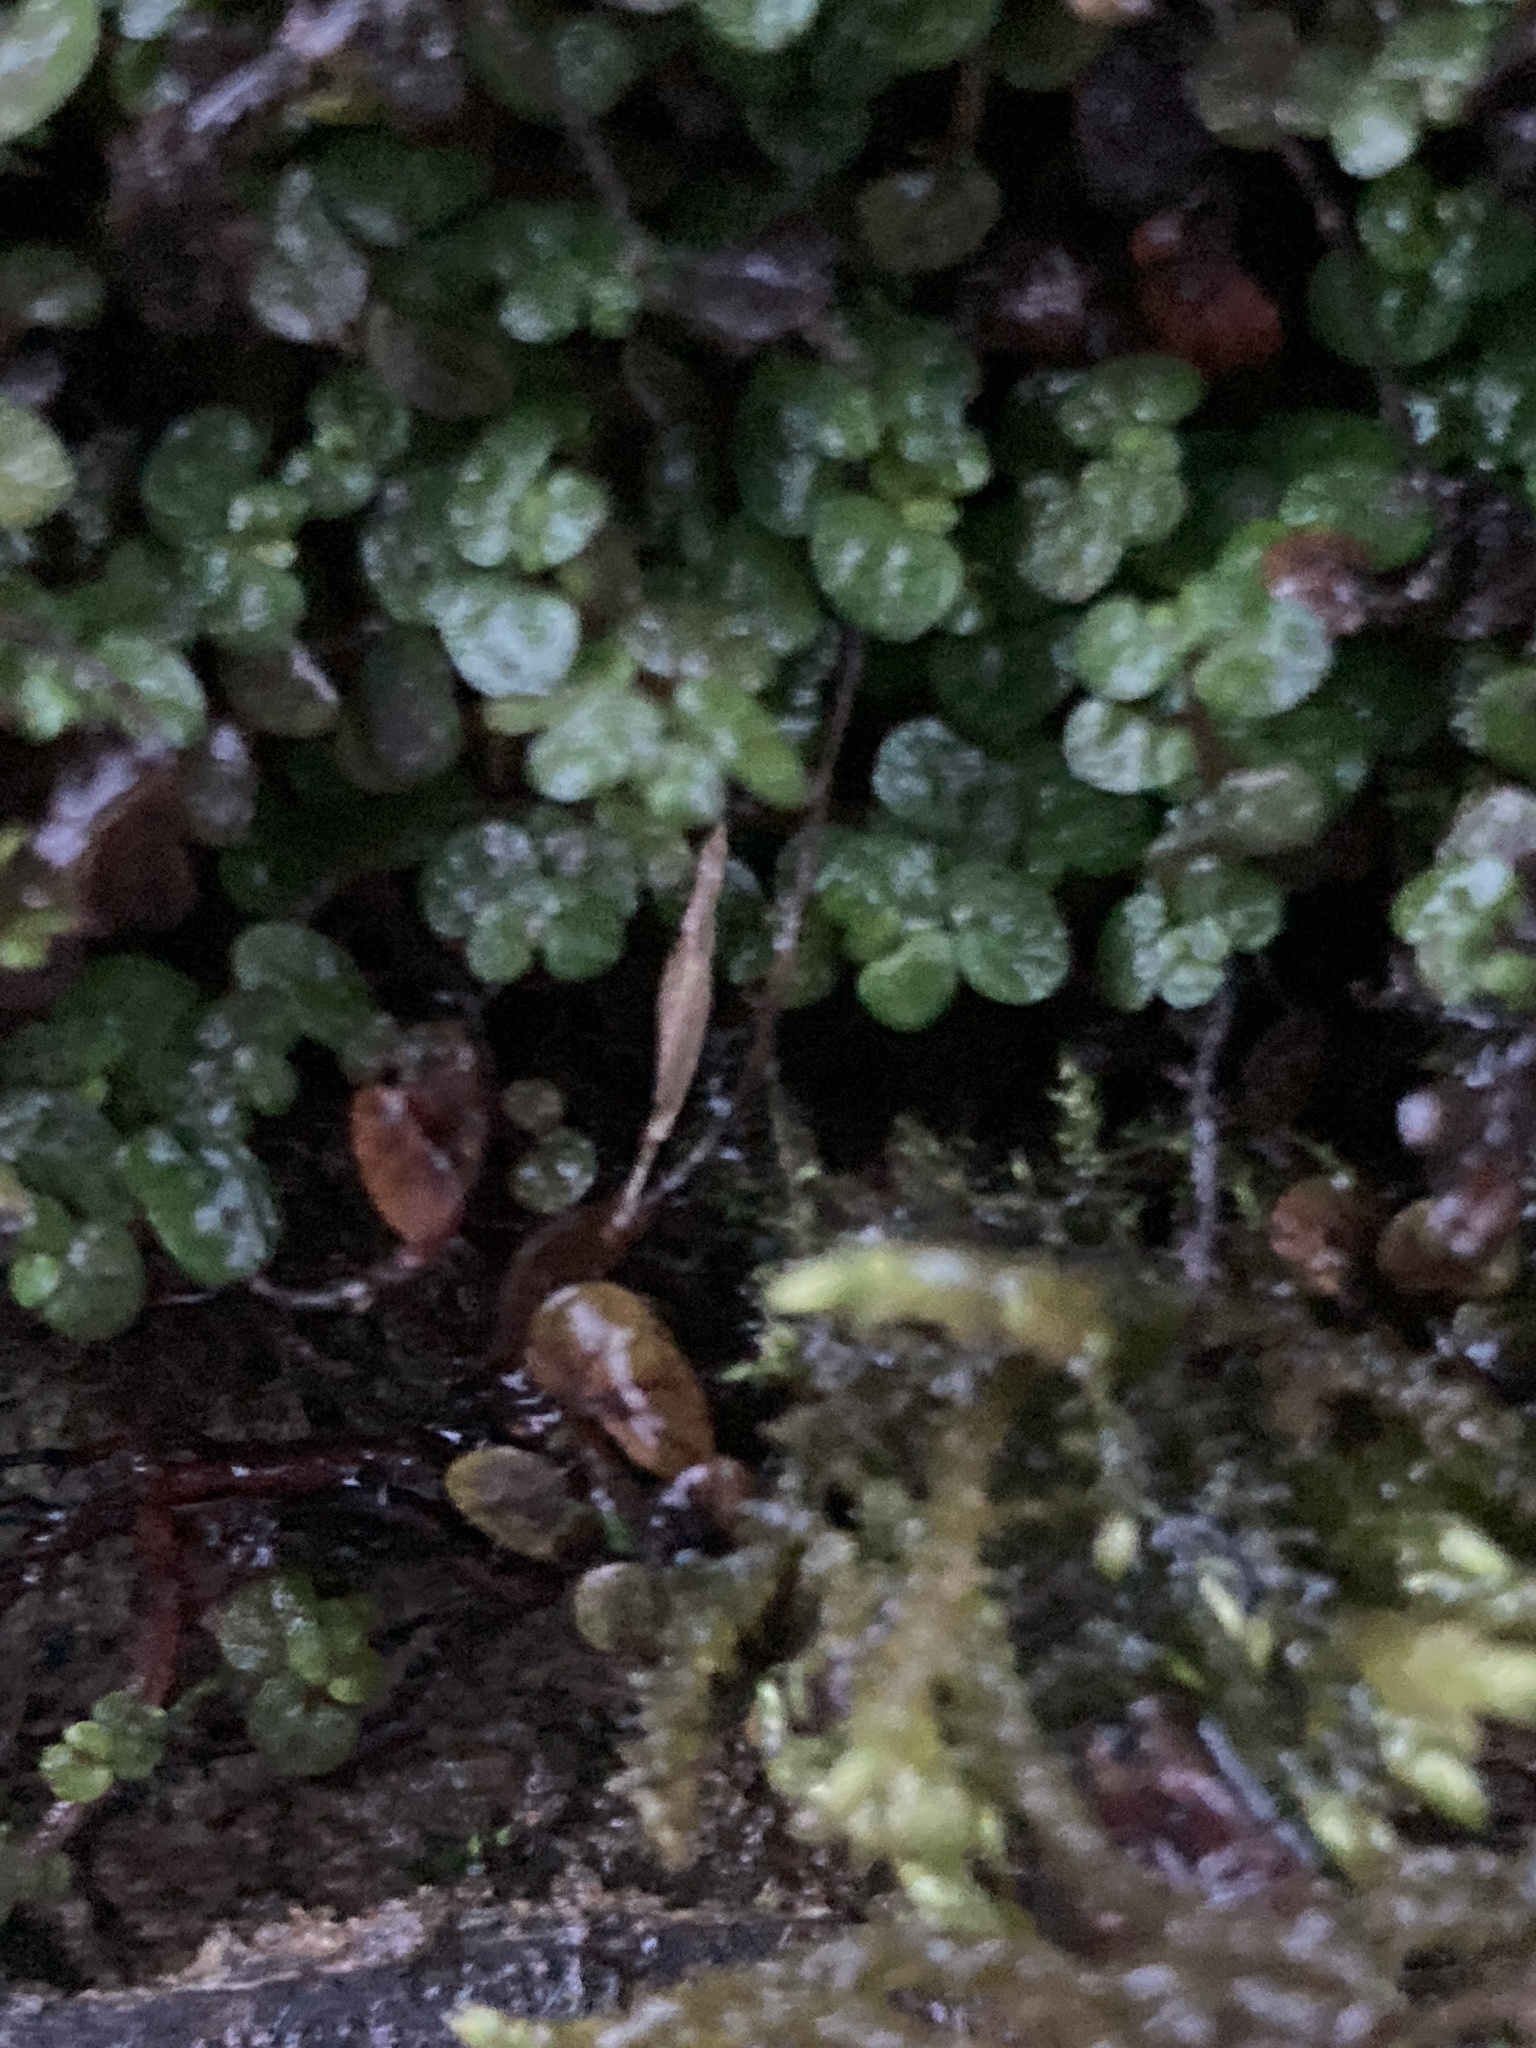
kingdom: Plantae
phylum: Tracheophyta
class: Magnoliopsida
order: Rosales
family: Urticaceae
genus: Soleirolia
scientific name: Soleirolia soleirolii
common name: Mind-your-own-business
